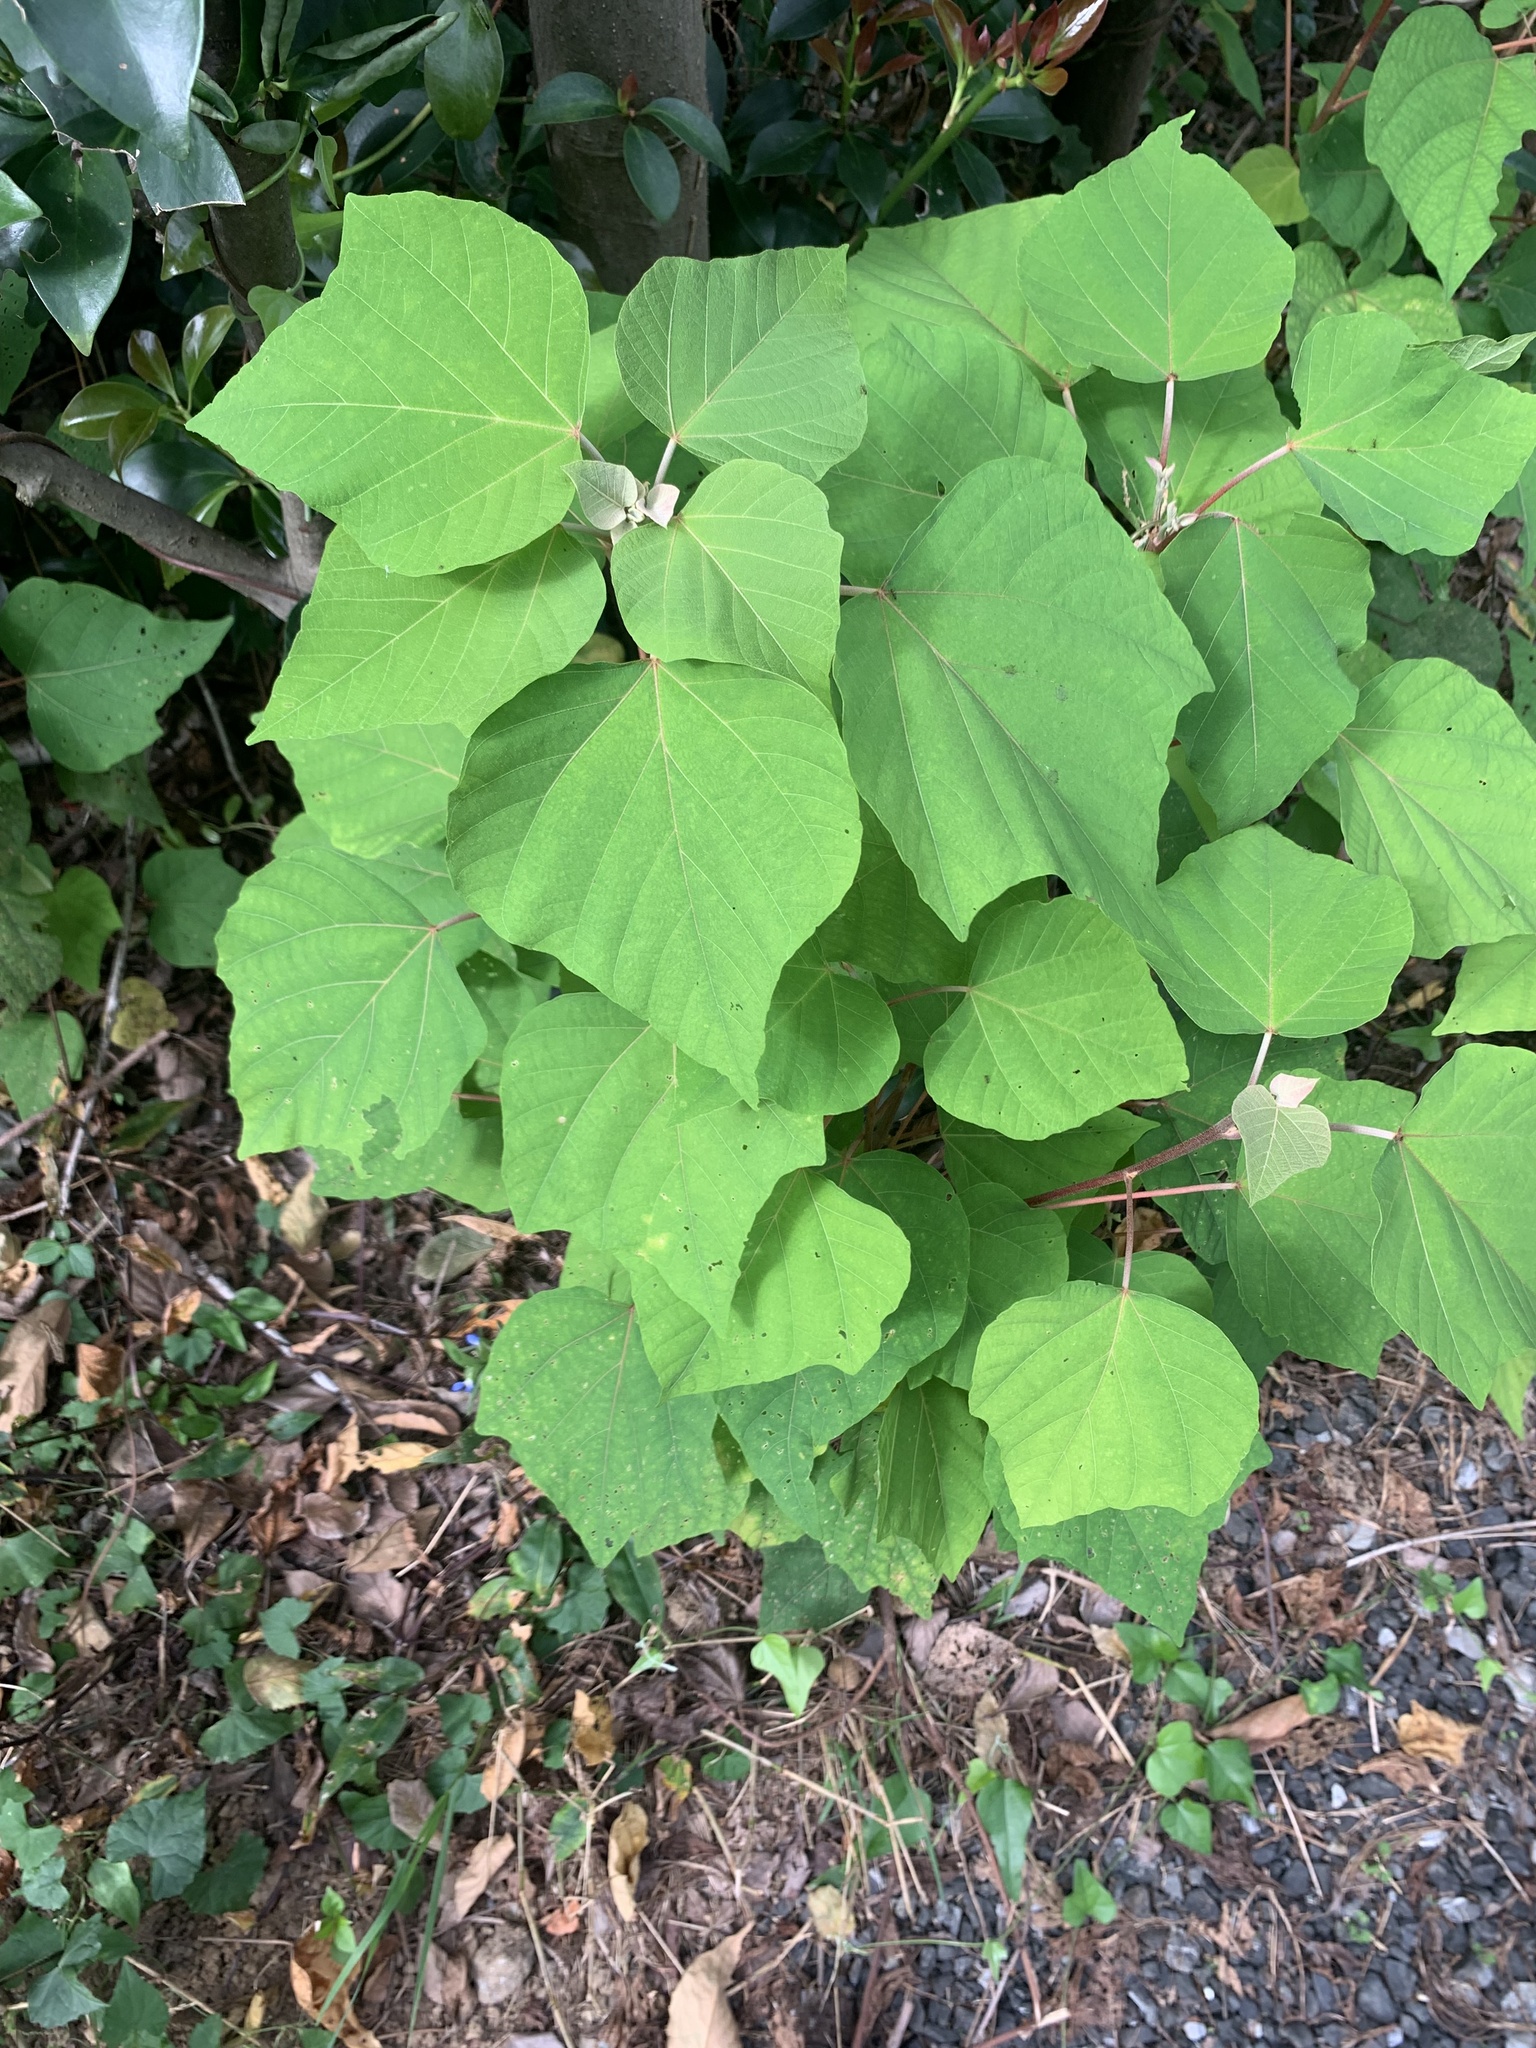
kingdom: Plantae
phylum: Tracheophyta
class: Magnoliopsida
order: Malpighiales
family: Euphorbiaceae
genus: Mallotus
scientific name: Mallotus japonicus
